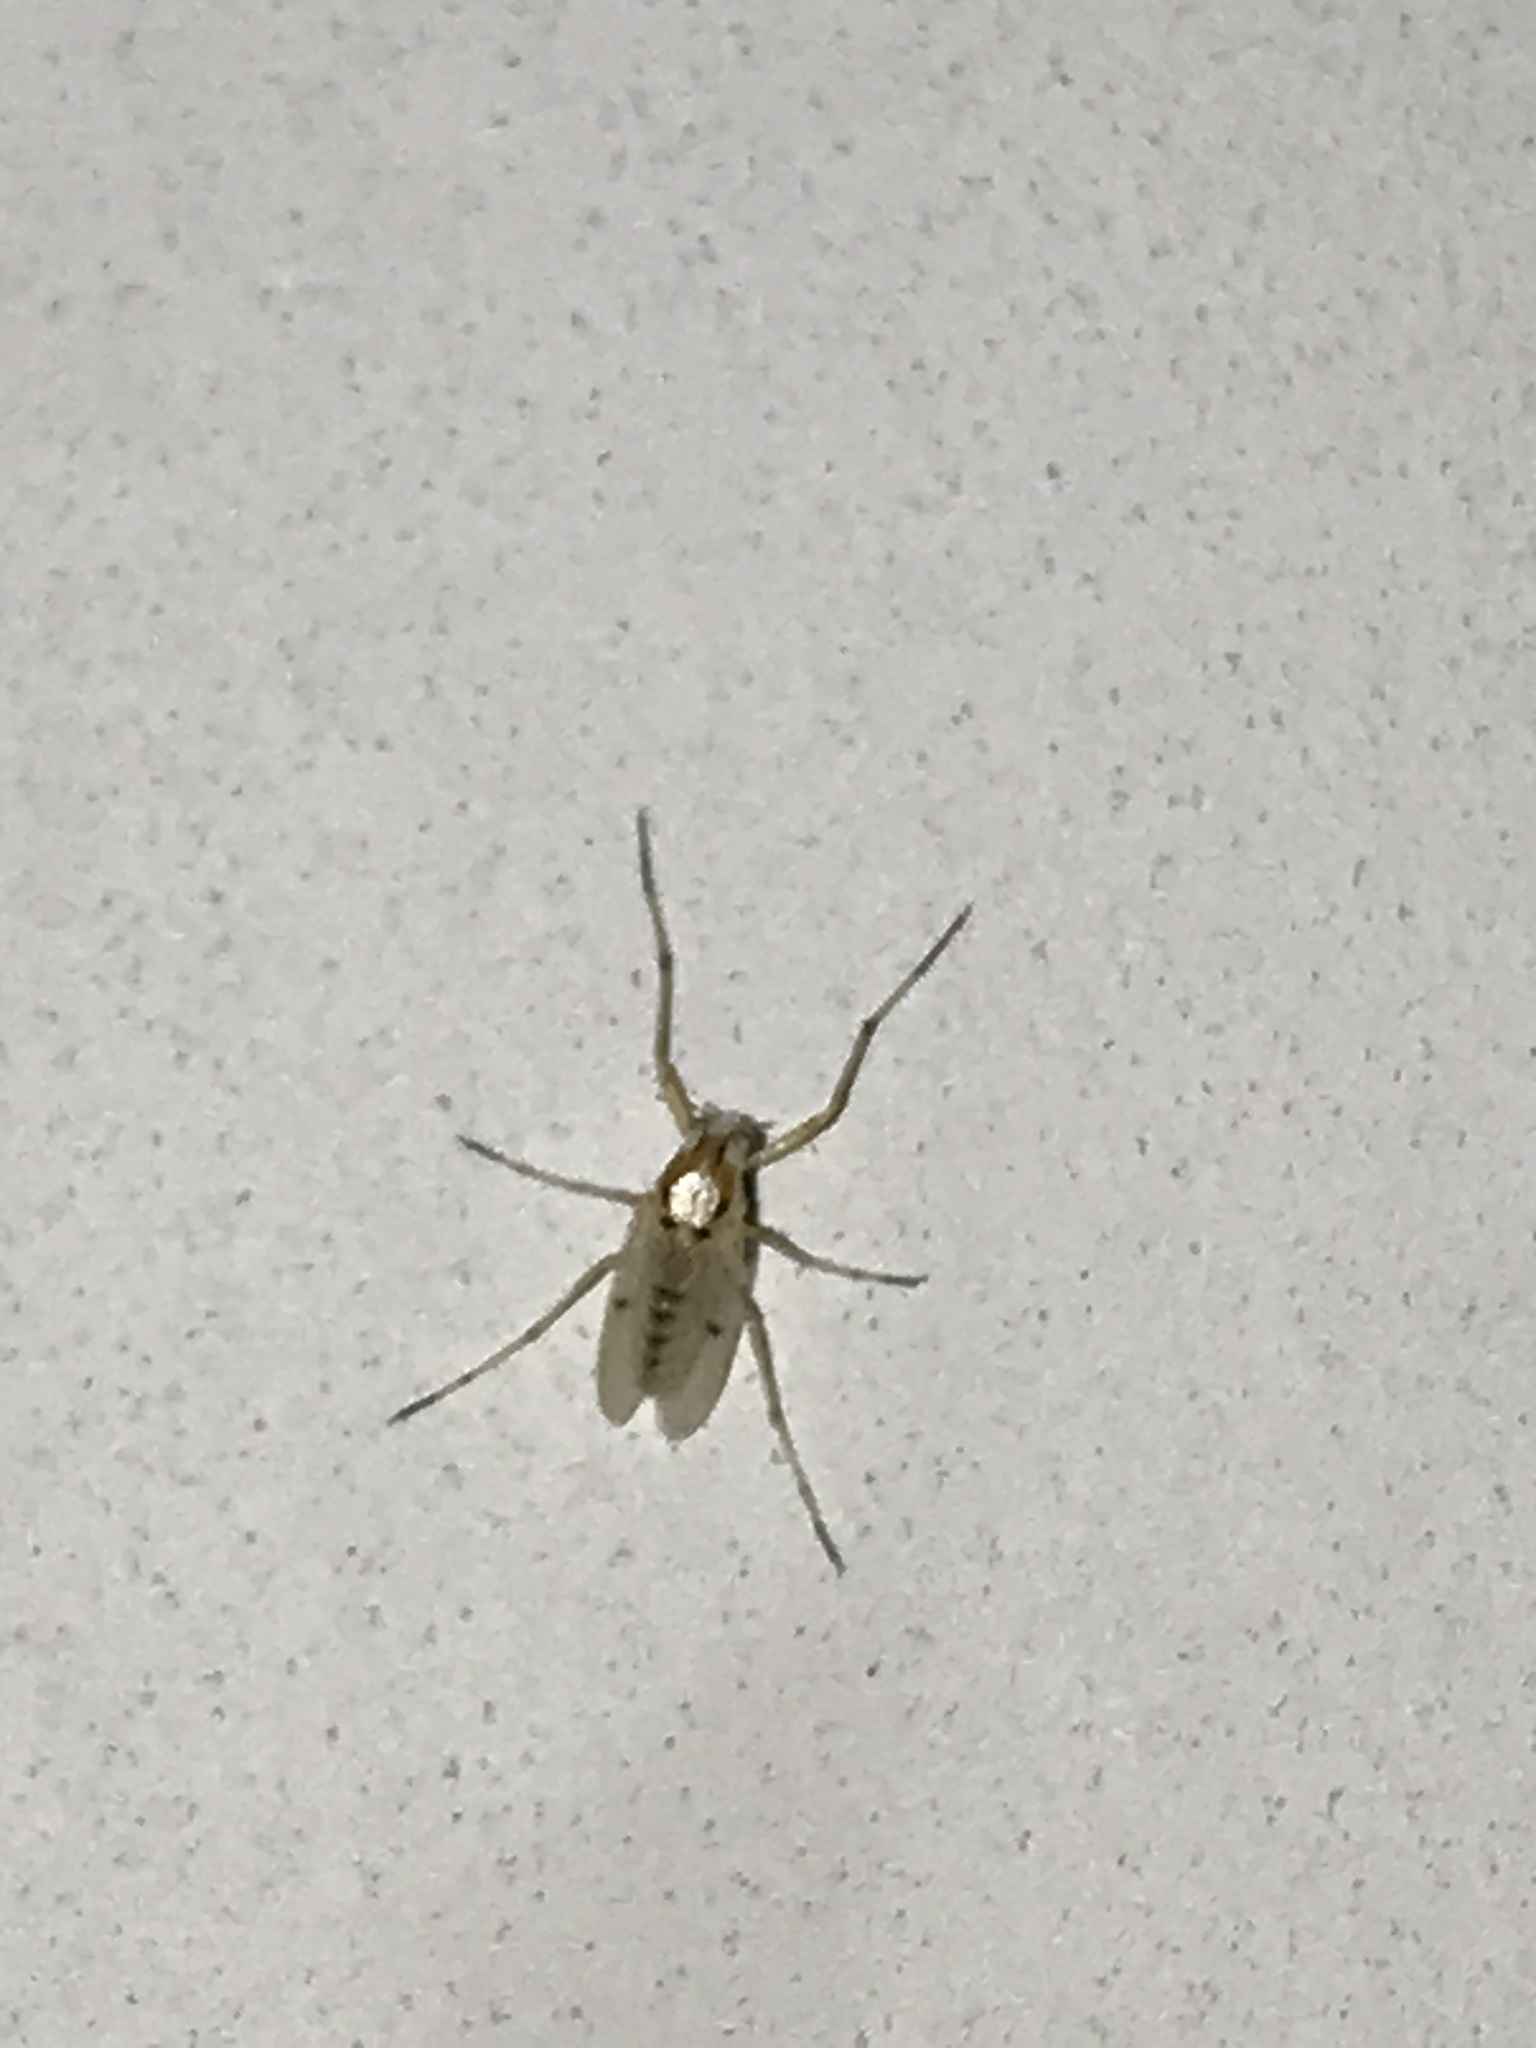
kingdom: Animalia
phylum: Arthropoda
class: Insecta
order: Diptera
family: Chironomidae
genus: Coelotanypus
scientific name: Coelotanypus concinnus
